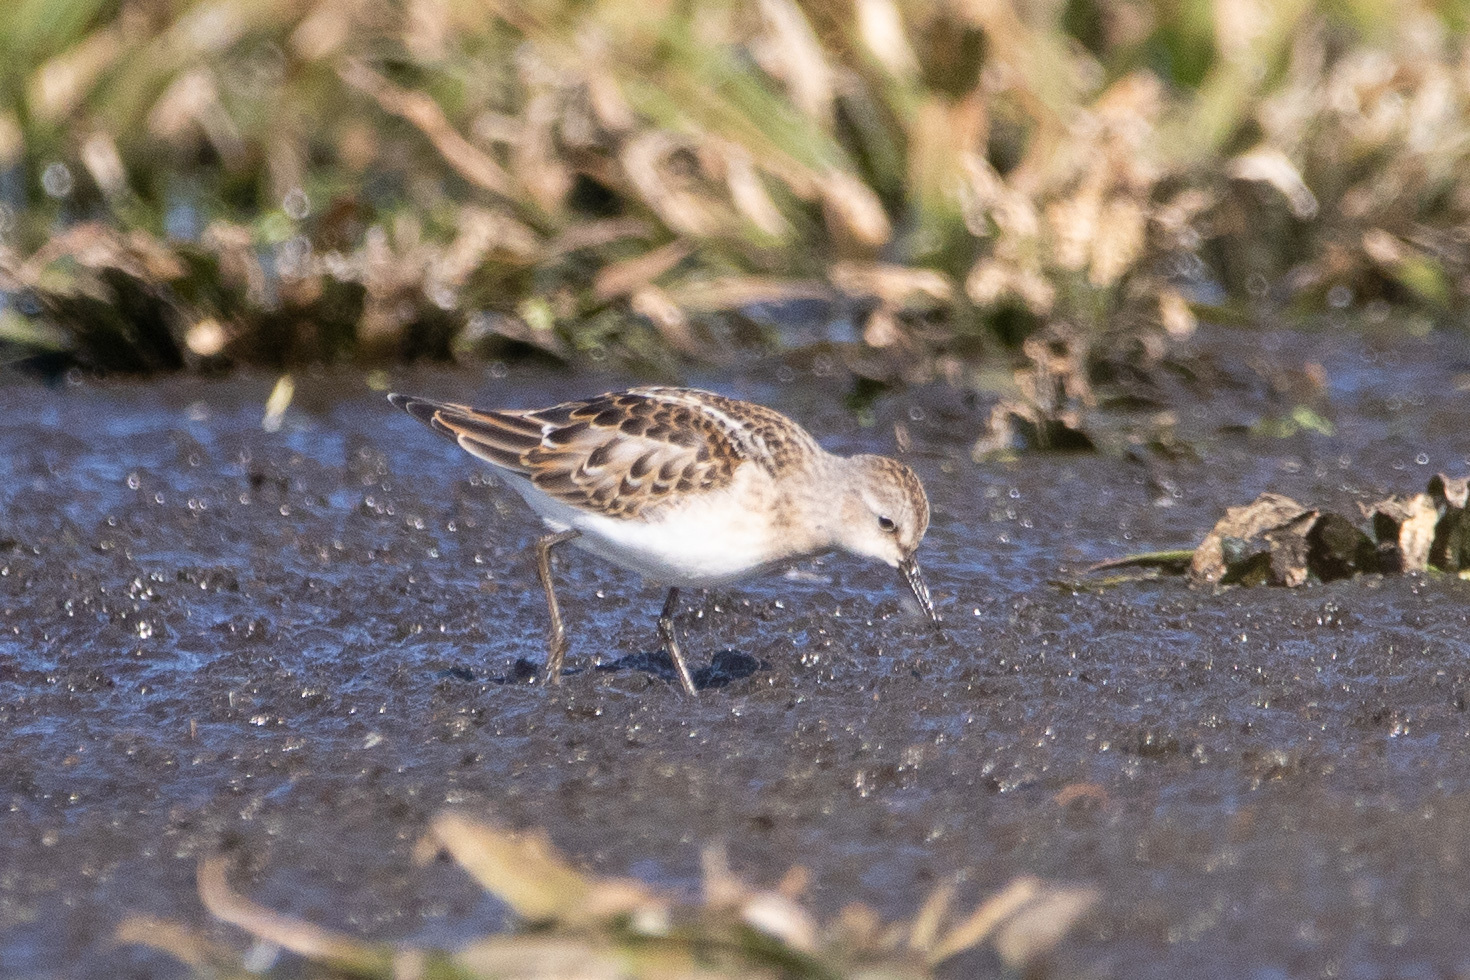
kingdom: Animalia
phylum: Chordata
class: Aves
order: Charadriiformes
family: Scolopacidae
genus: Calidris
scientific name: Calidris minuta
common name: Little stint
